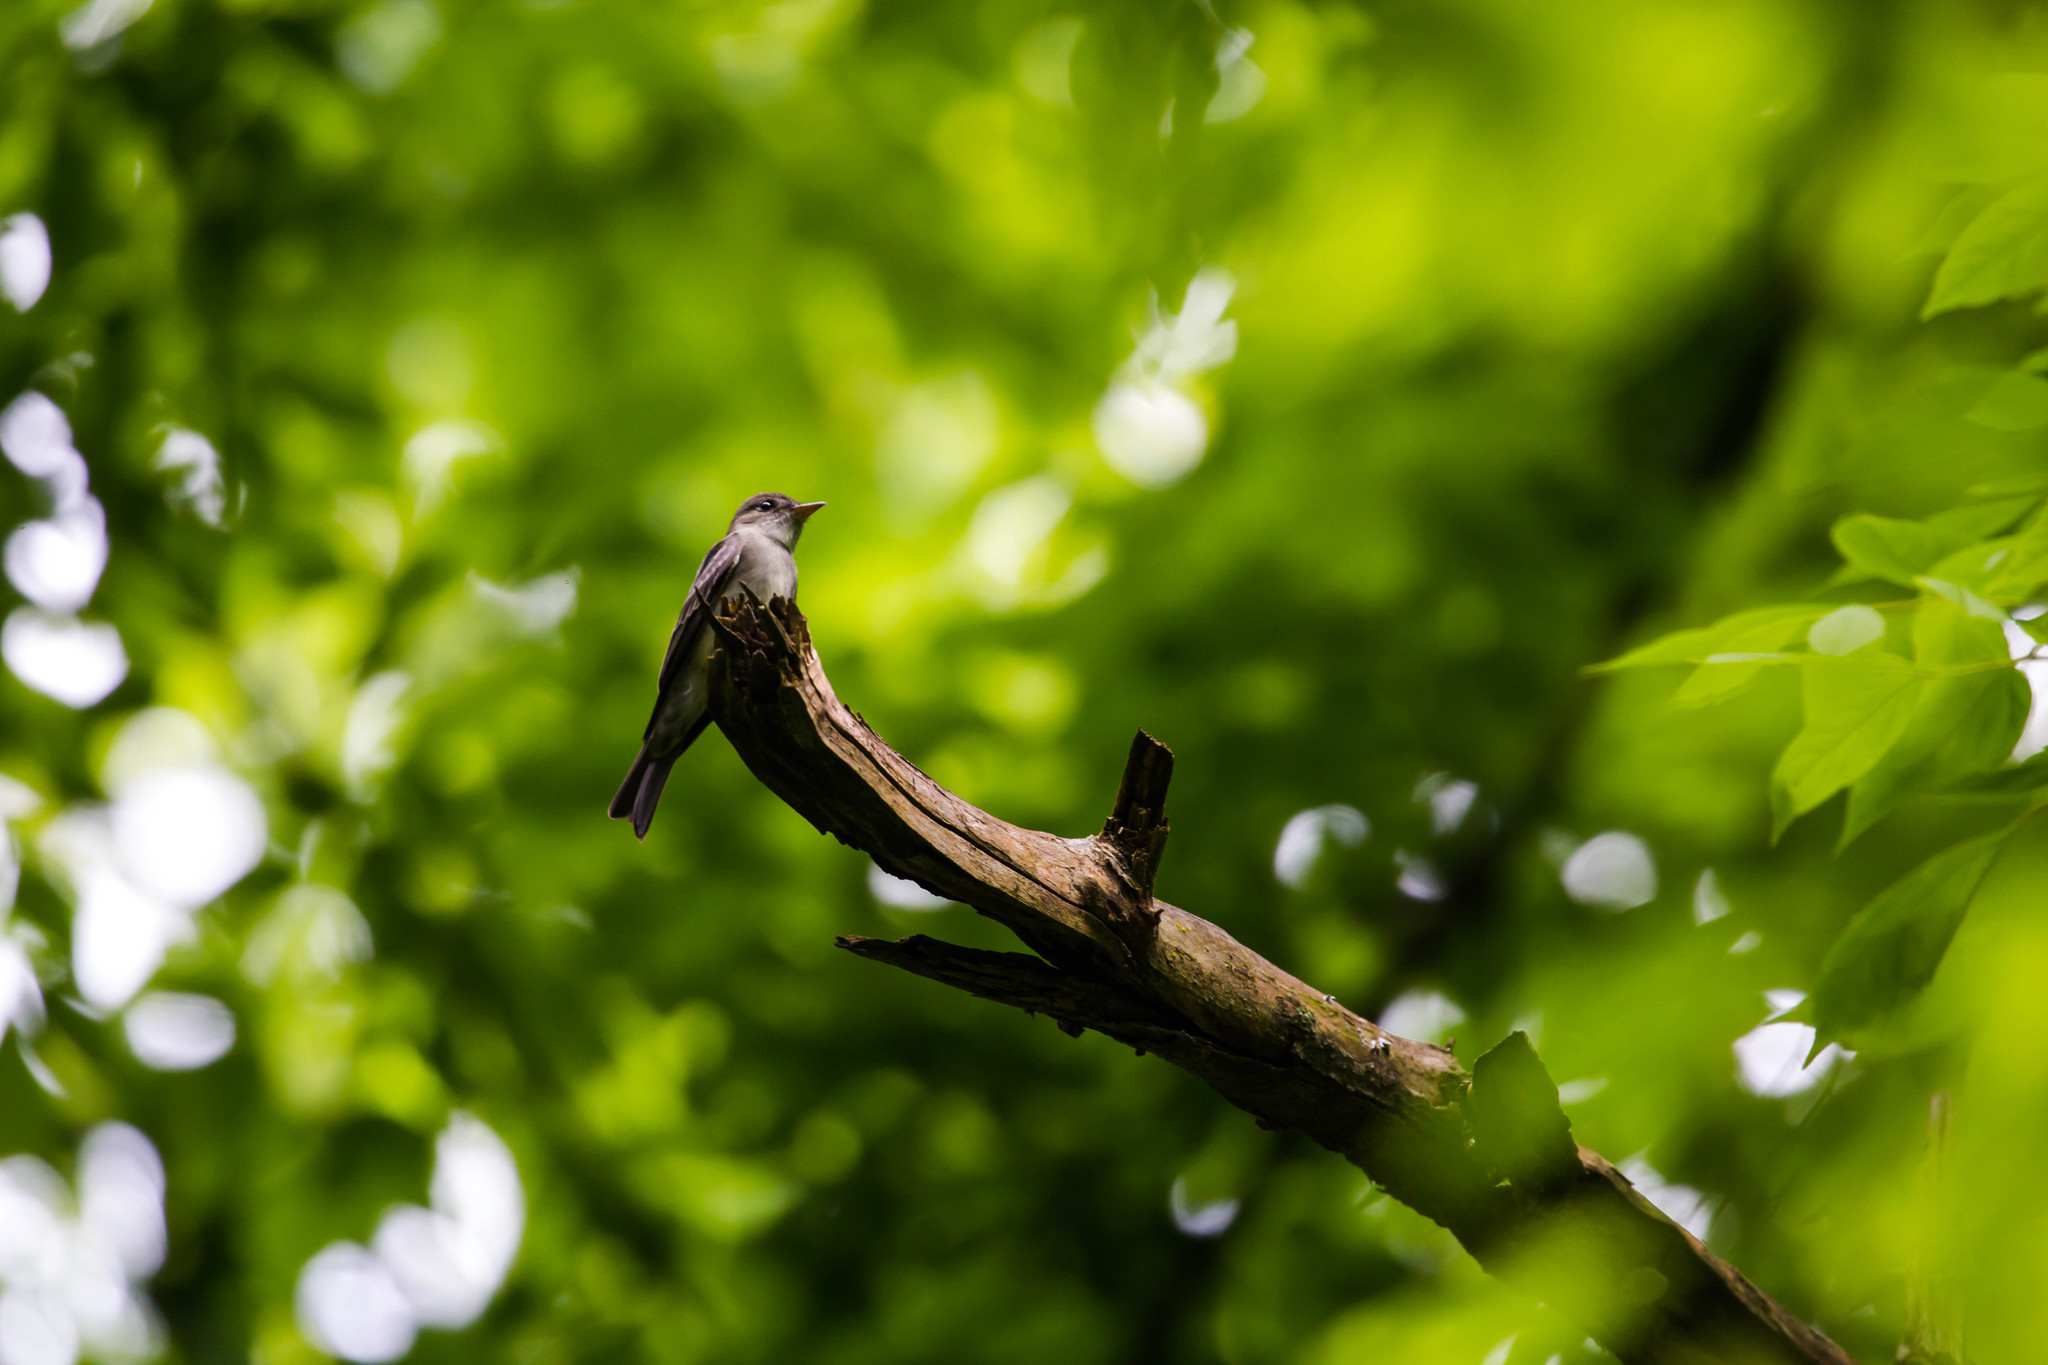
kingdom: Animalia
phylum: Chordata
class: Aves
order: Passeriformes
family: Tyrannidae
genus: Contopus
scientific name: Contopus virens
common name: Eastern wood-pewee
